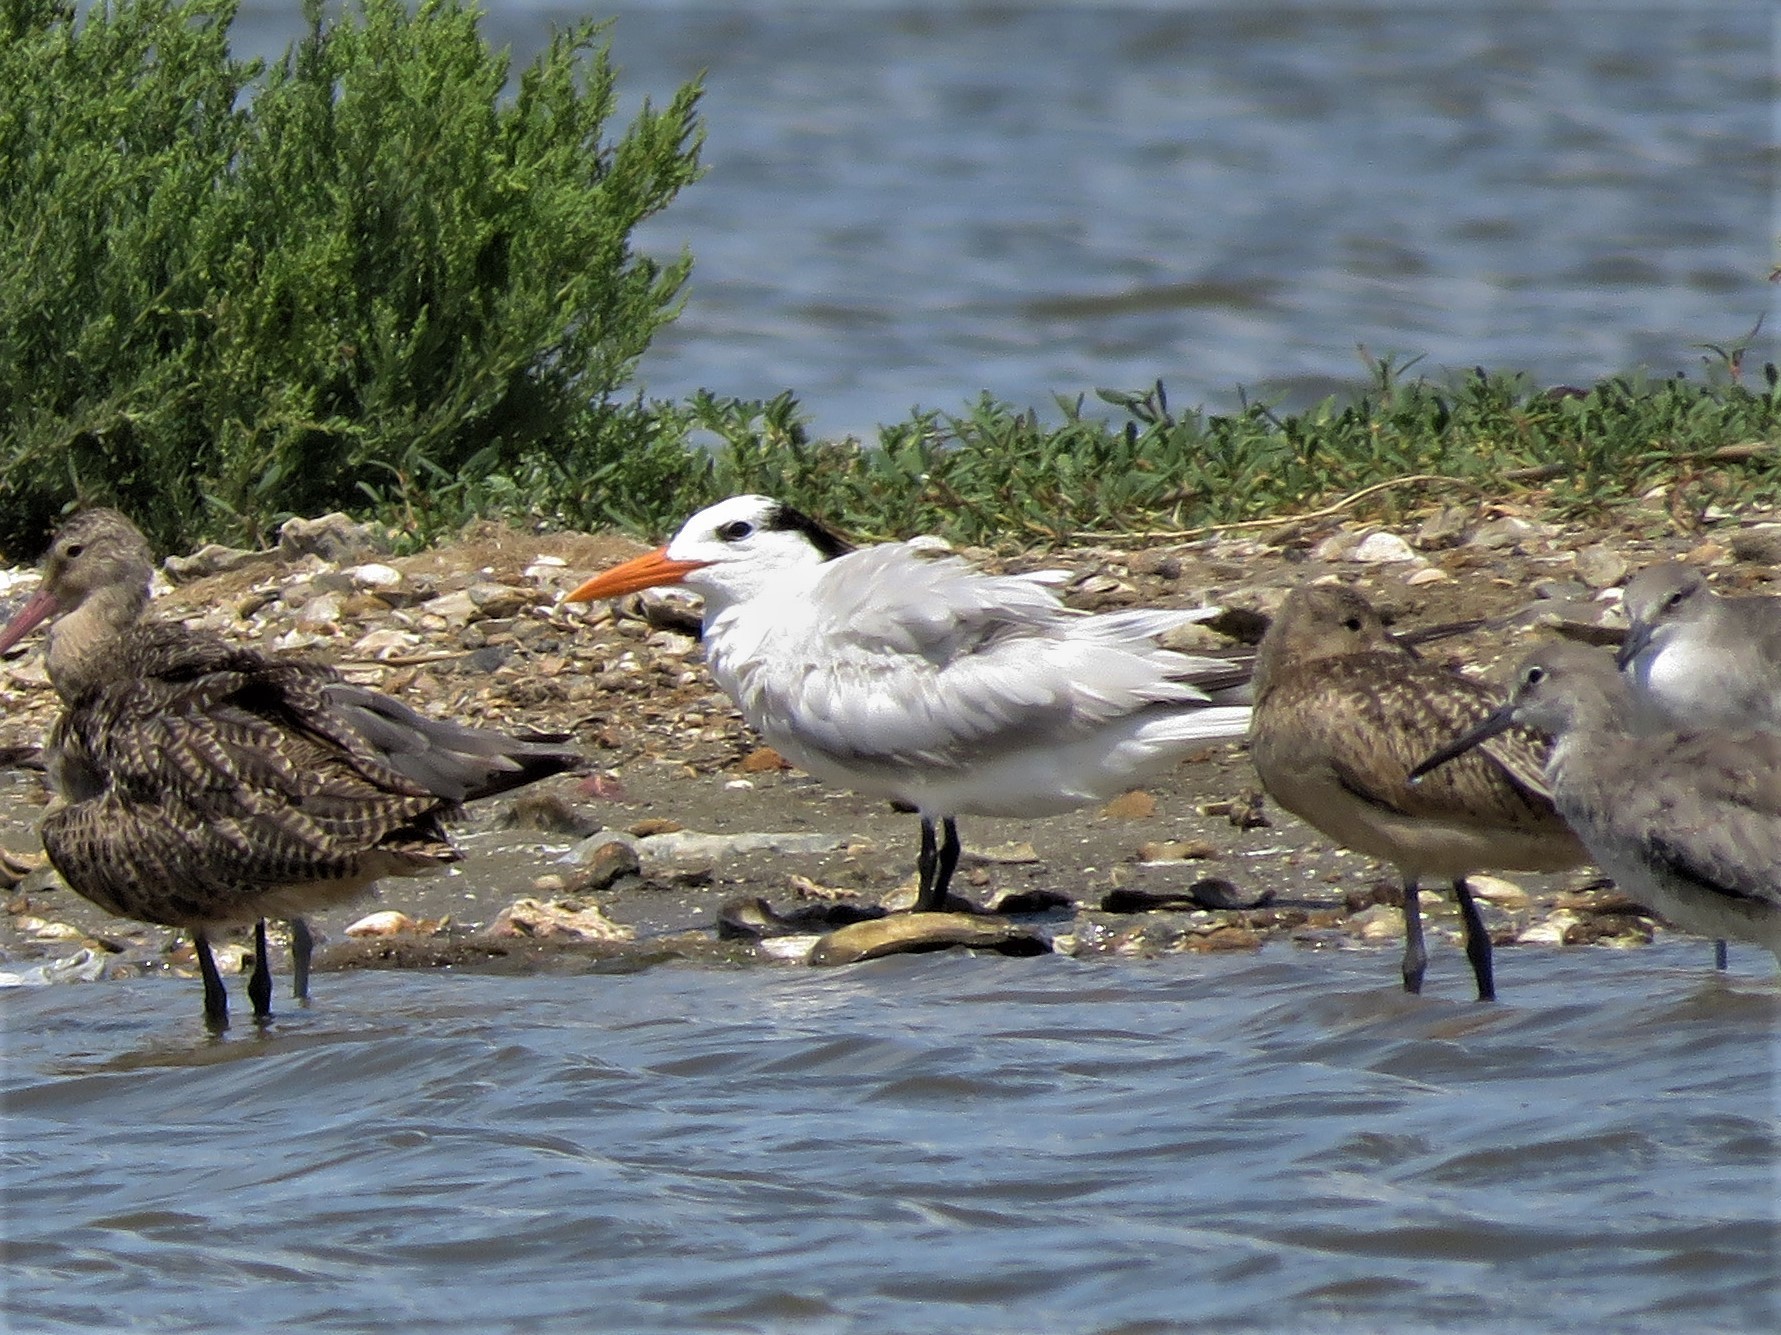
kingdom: Animalia
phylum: Chordata
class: Aves
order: Charadriiformes
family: Laridae
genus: Thalasseus
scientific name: Thalasseus maximus
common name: Royal tern
